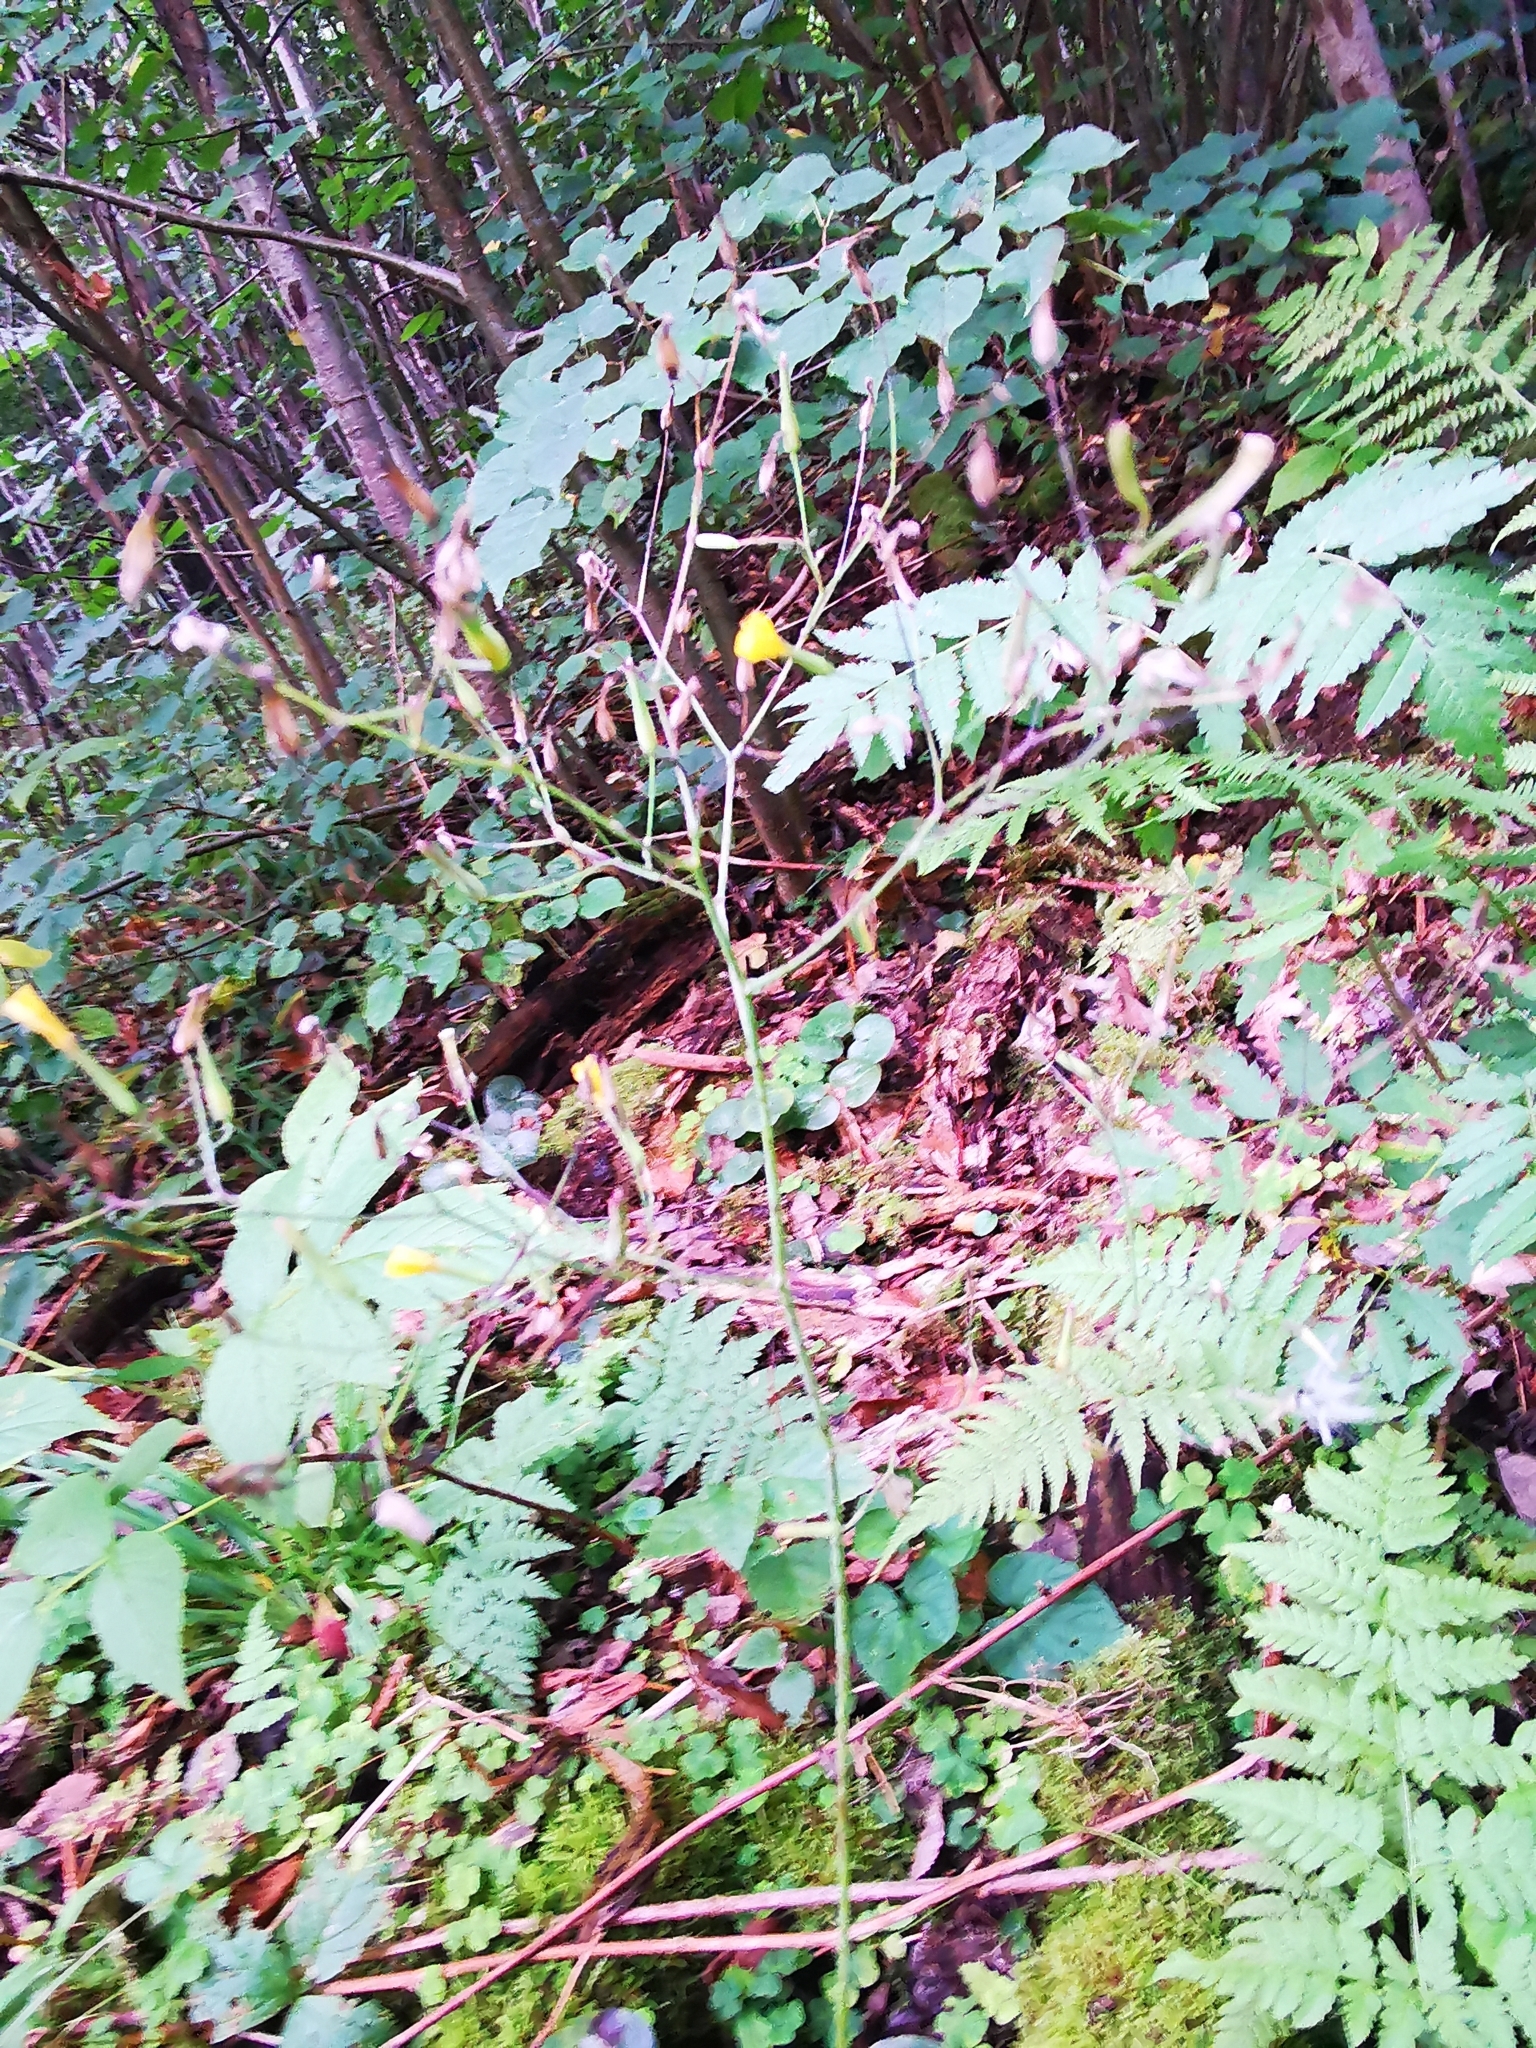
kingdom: Plantae
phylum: Tracheophyta
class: Magnoliopsida
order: Asterales
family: Asteraceae
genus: Mycelis
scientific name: Mycelis muralis
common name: Wall lettuce
